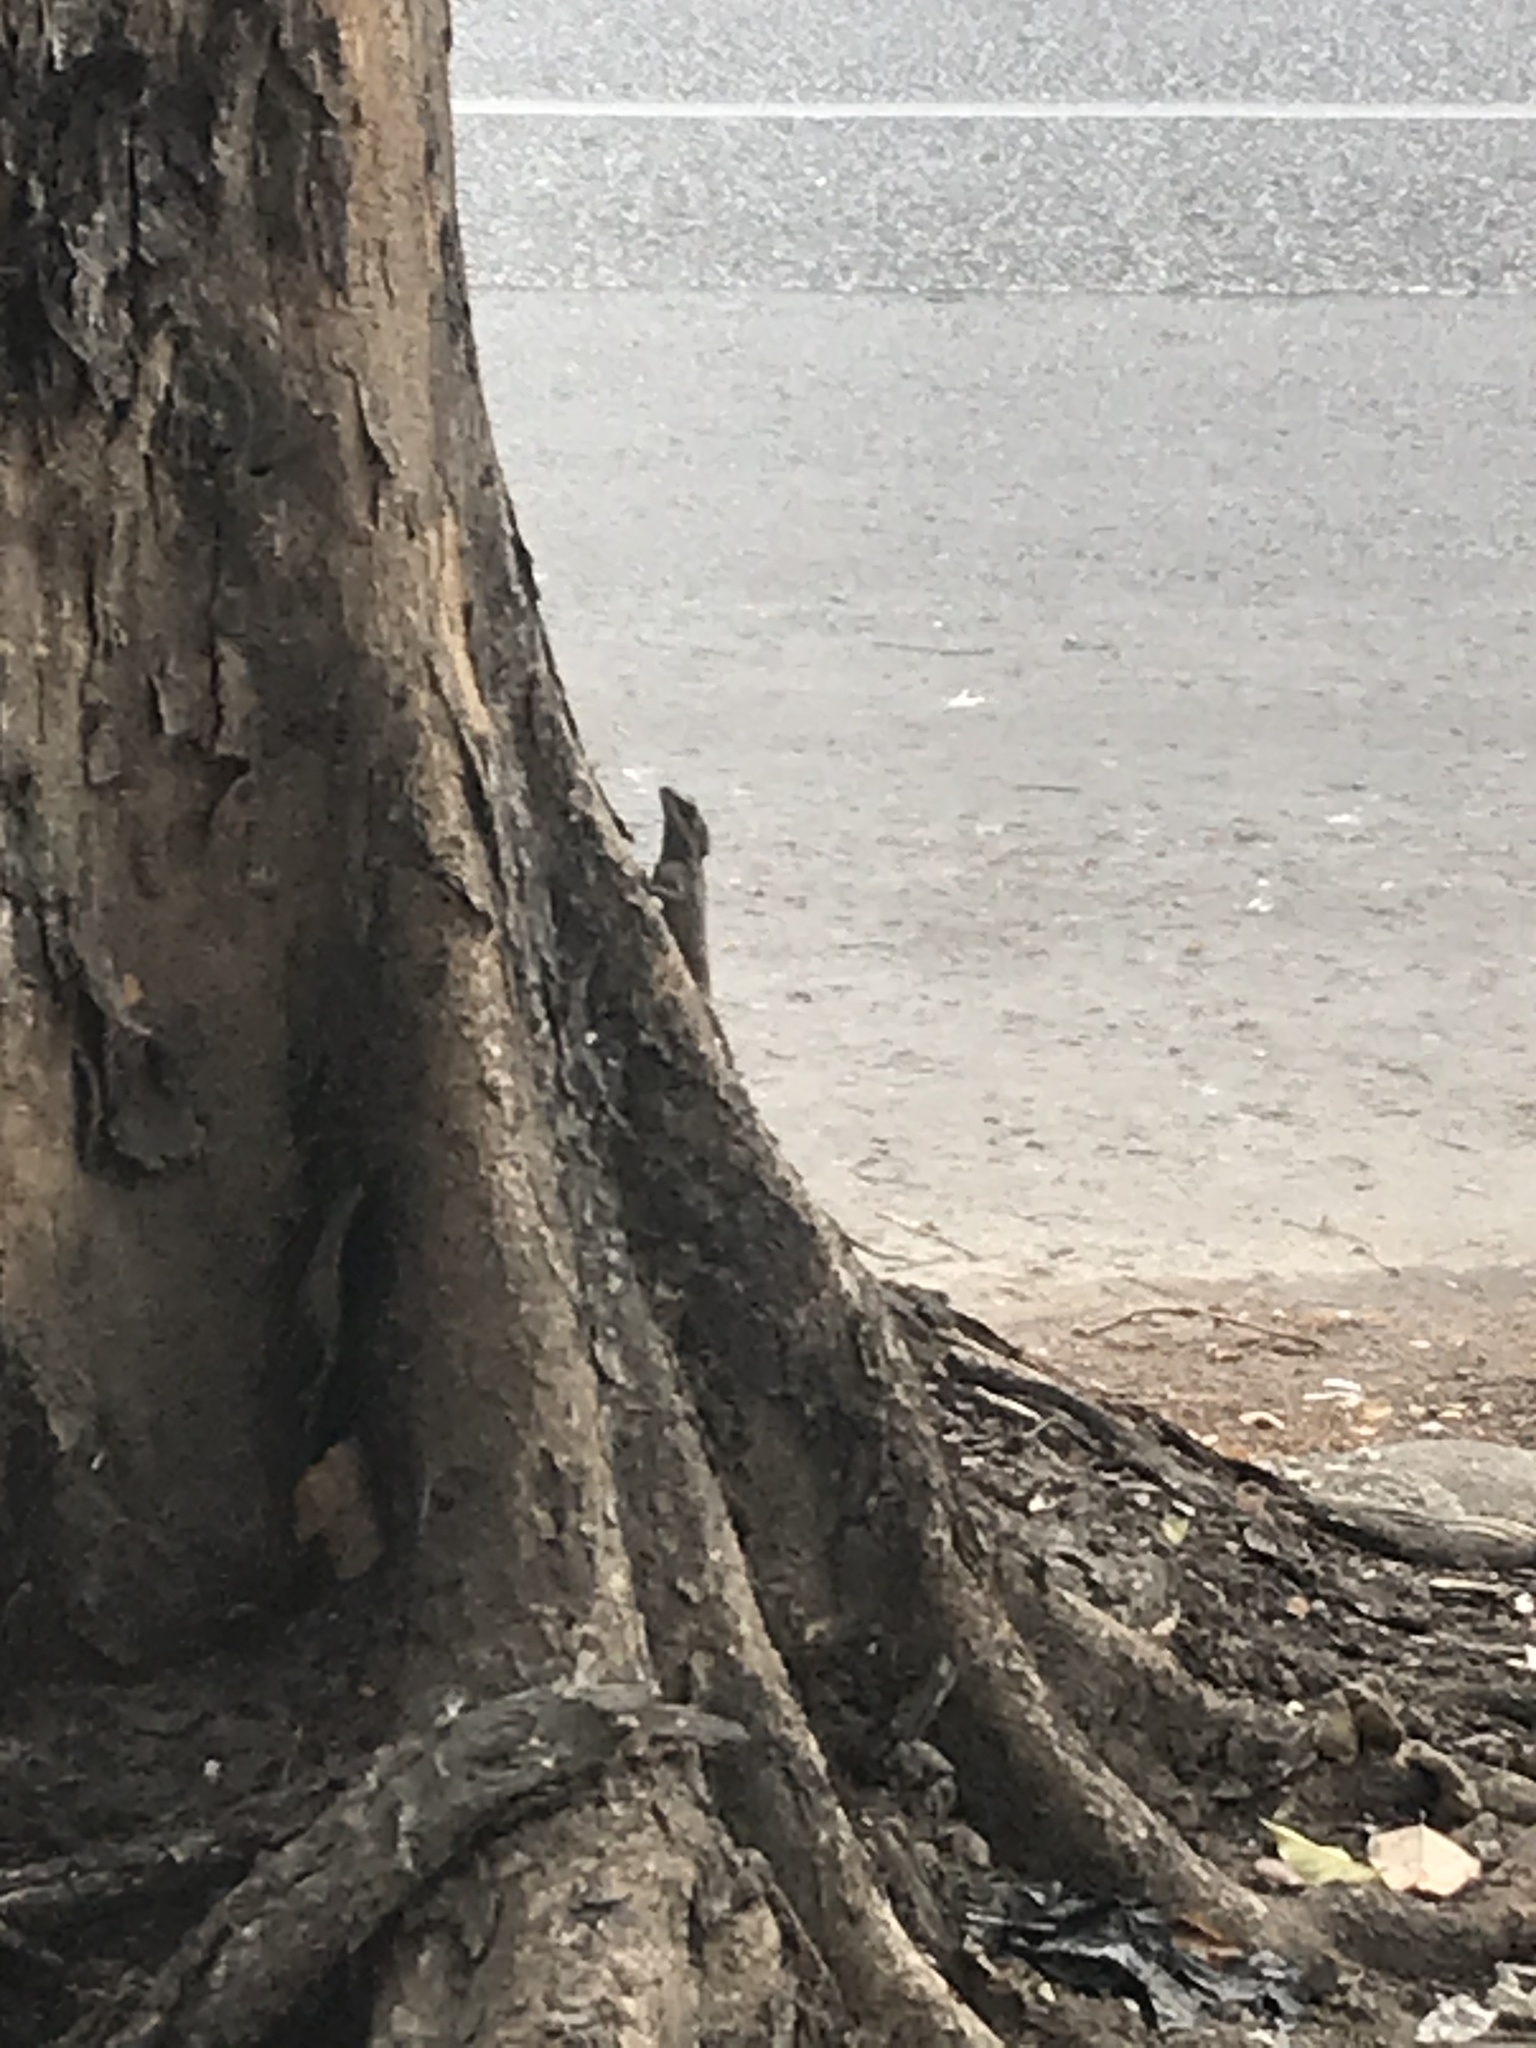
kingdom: Animalia
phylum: Chordata
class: Squamata
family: Agamidae
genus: Calotes
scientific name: Calotes mystaceus
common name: Indo-chinese forest lizard
